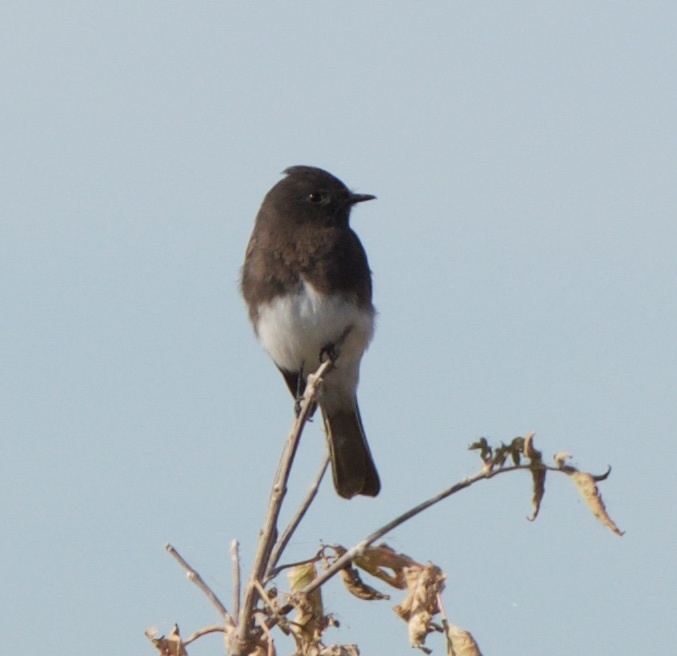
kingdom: Animalia
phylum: Chordata
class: Aves
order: Passeriformes
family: Tyrannidae
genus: Sayornis
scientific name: Sayornis nigricans
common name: Black phoebe
